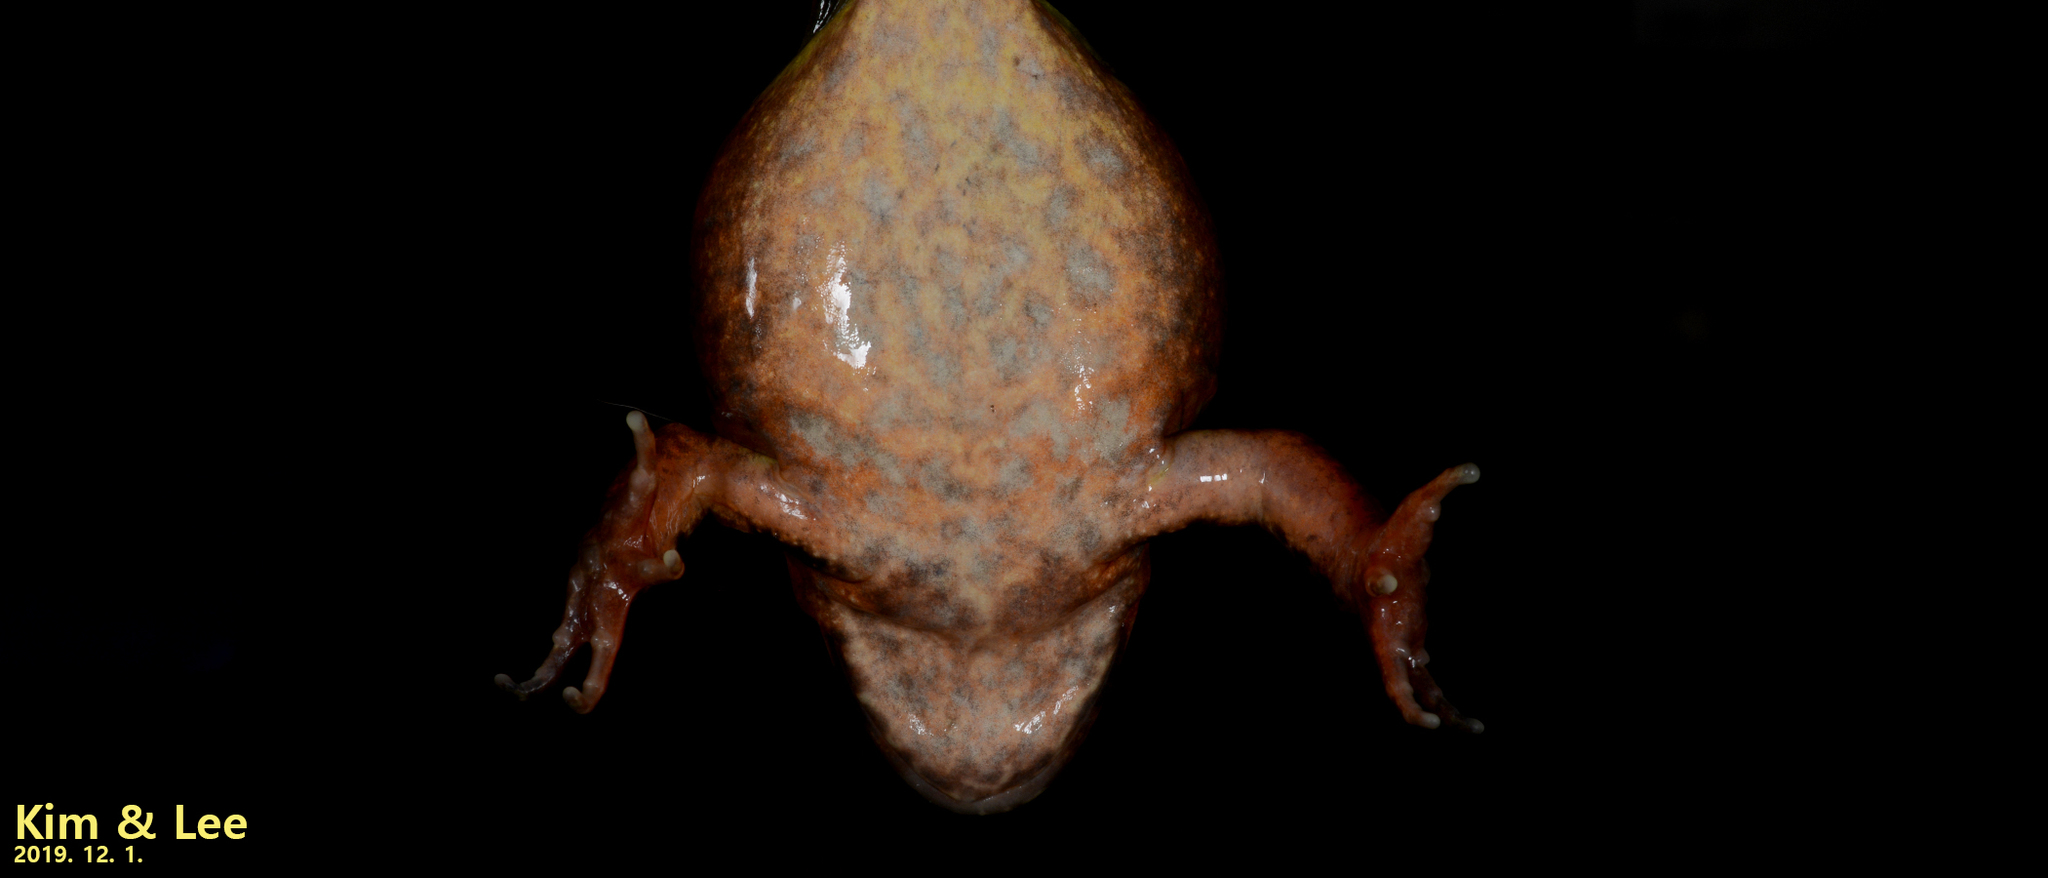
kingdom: Animalia
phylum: Chordata
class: Amphibia
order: Anura
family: Ranidae
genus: Rana
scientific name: Rana dybowskii
